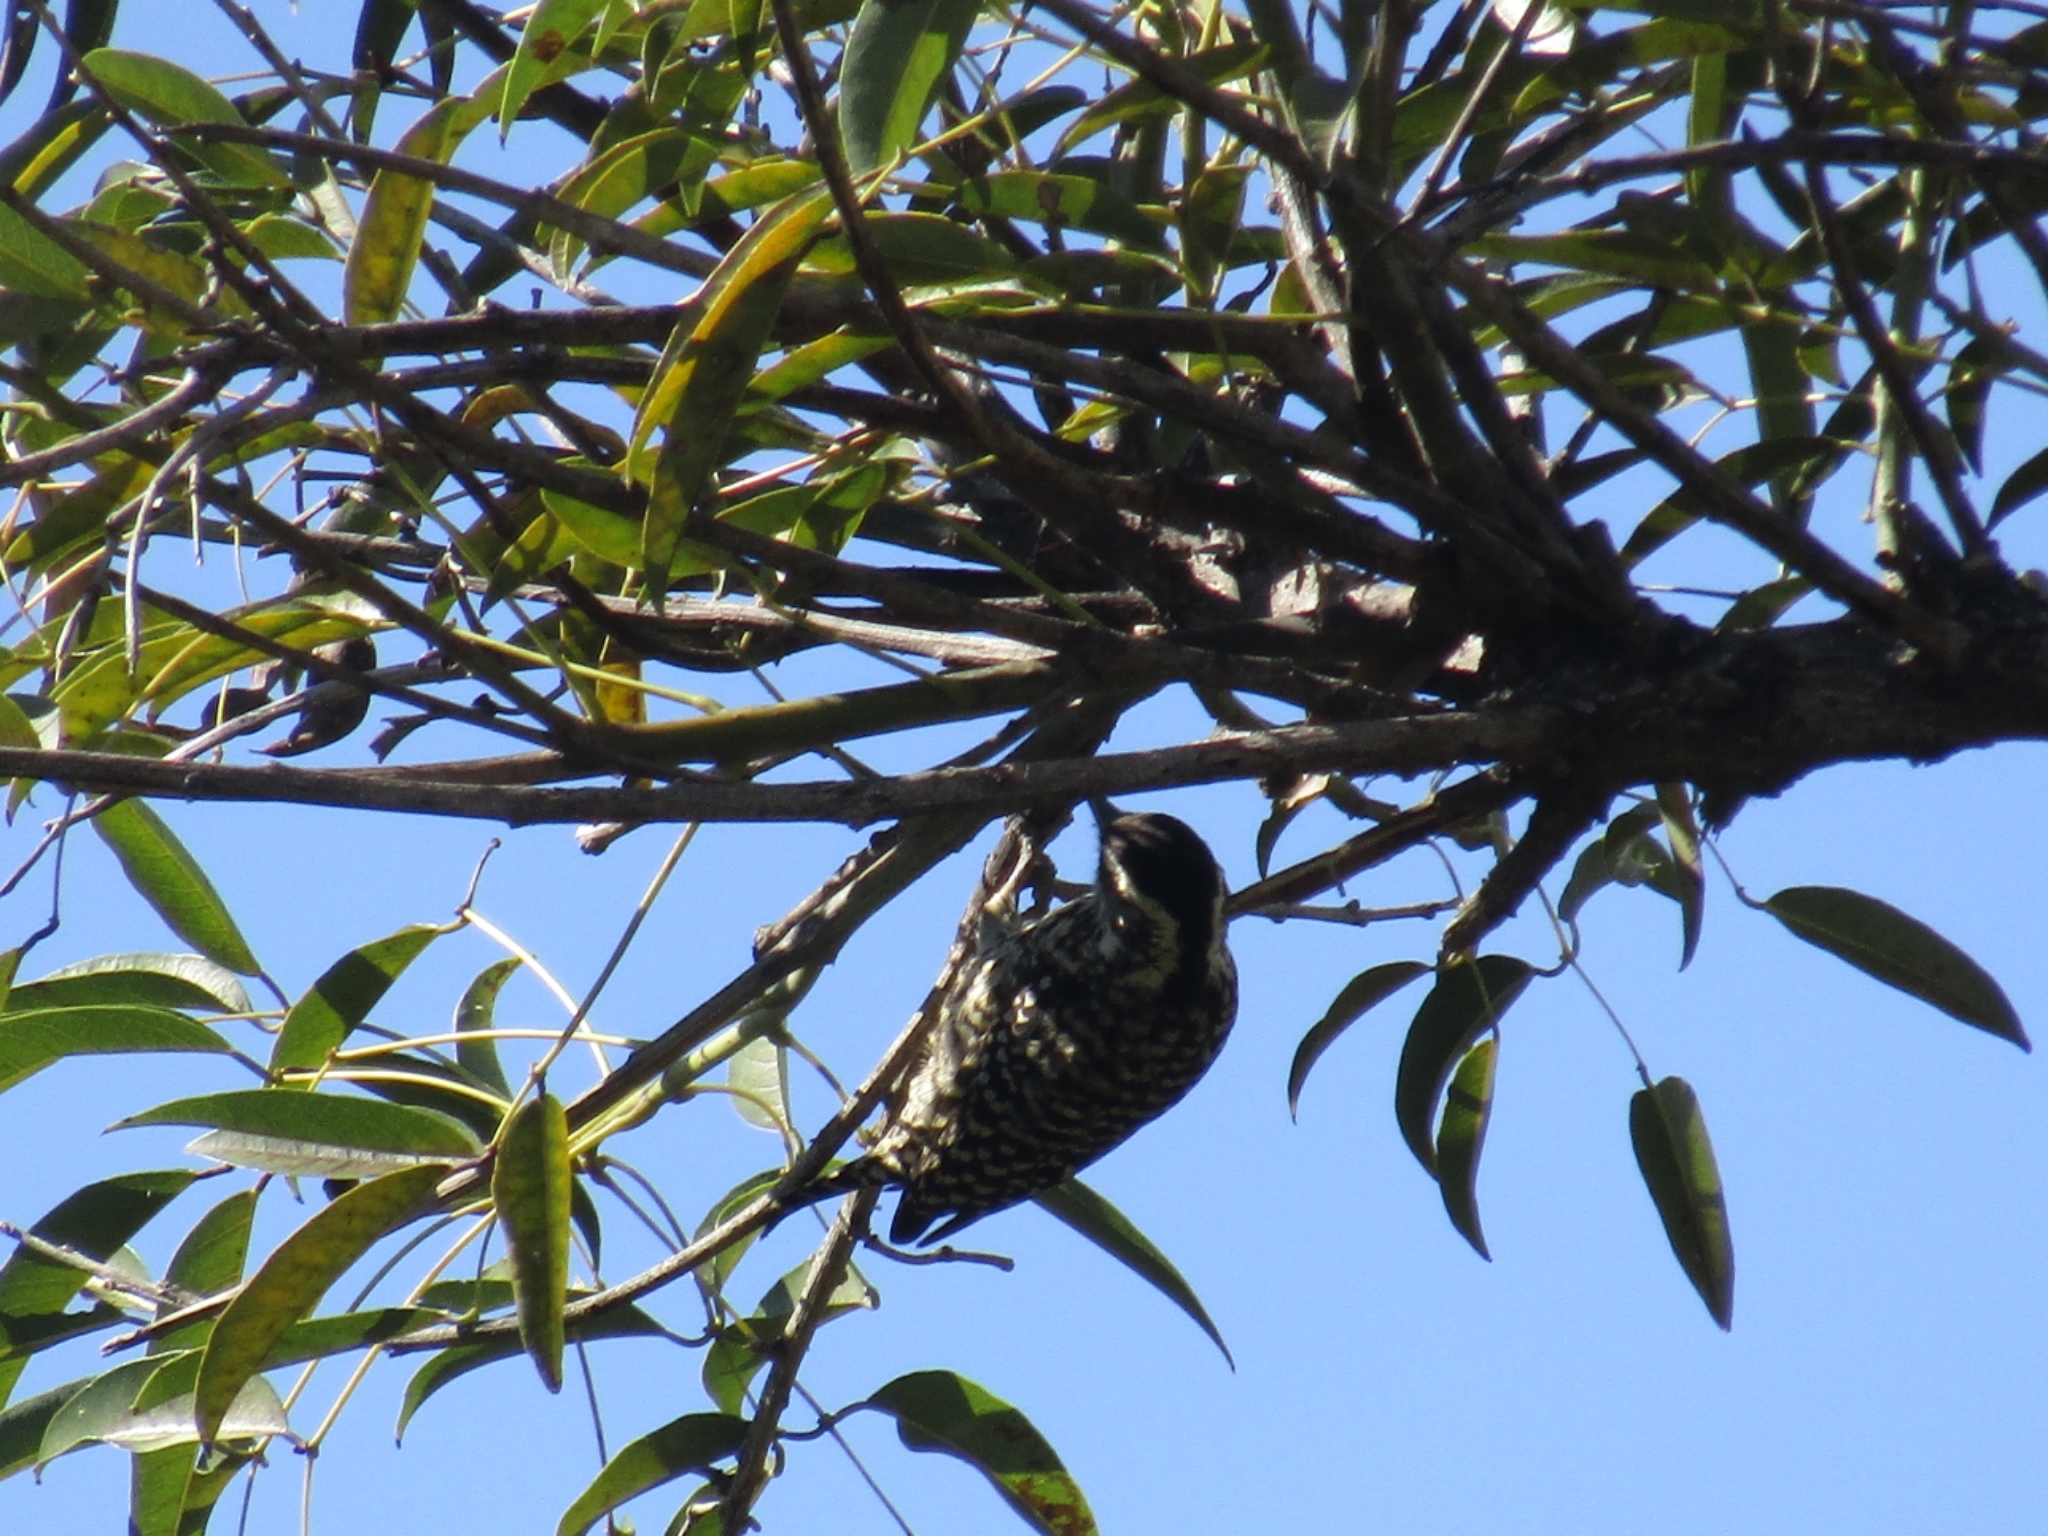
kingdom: Animalia
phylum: Chordata
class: Aves
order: Piciformes
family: Picidae
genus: Veniliornis
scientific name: Veniliornis mixtus
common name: Checkered woodpecker
